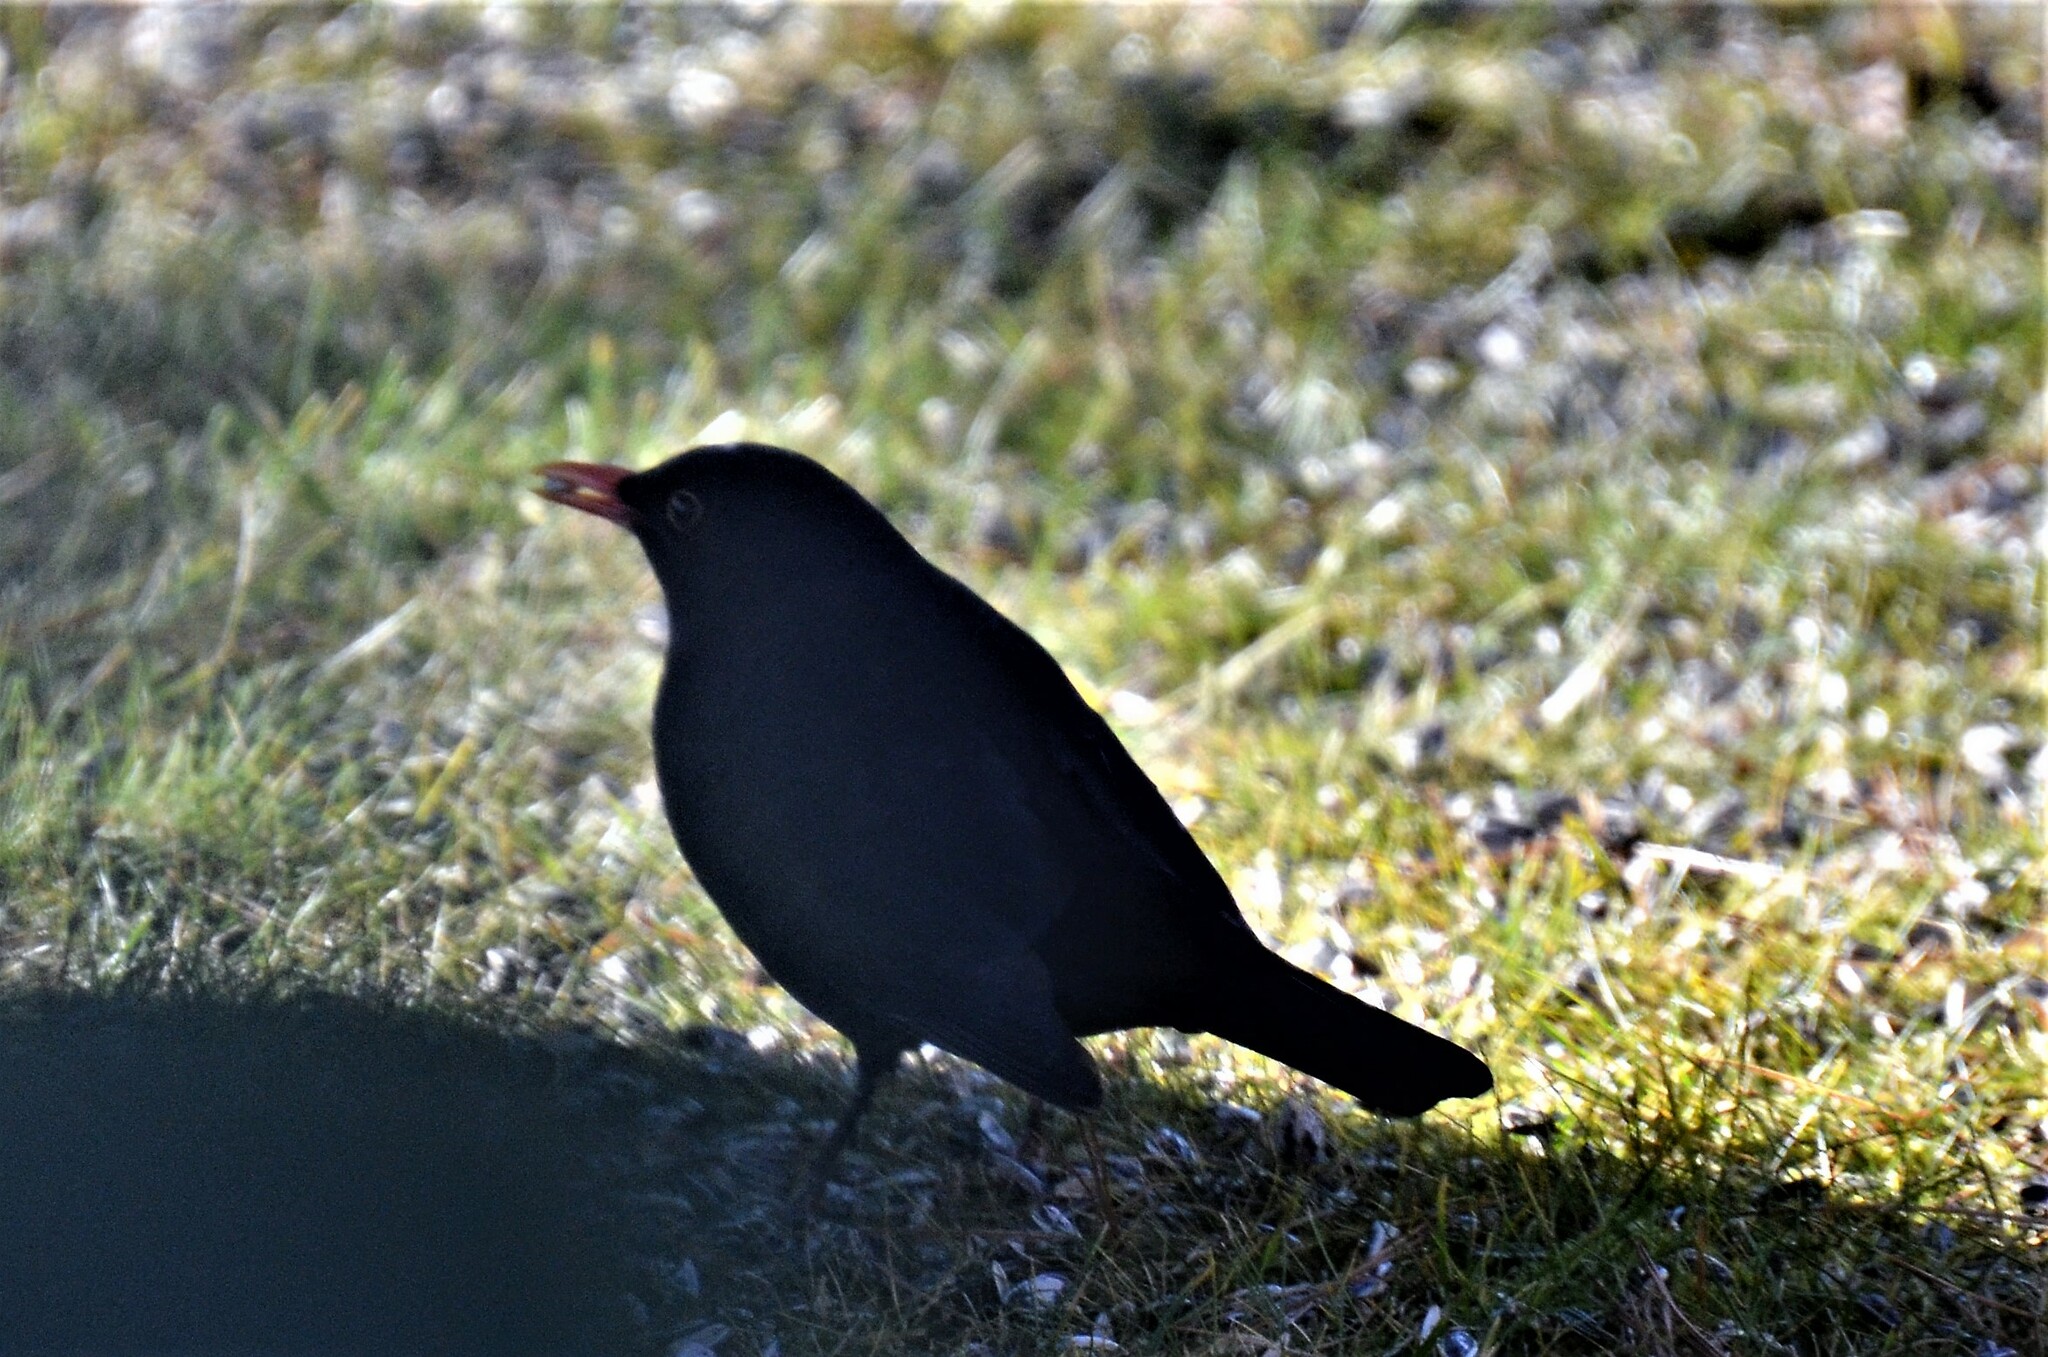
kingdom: Animalia
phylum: Chordata
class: Aves
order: Passeriformes
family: Turdidae
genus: Turdus
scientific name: Turdus merula
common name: Common blackbird
